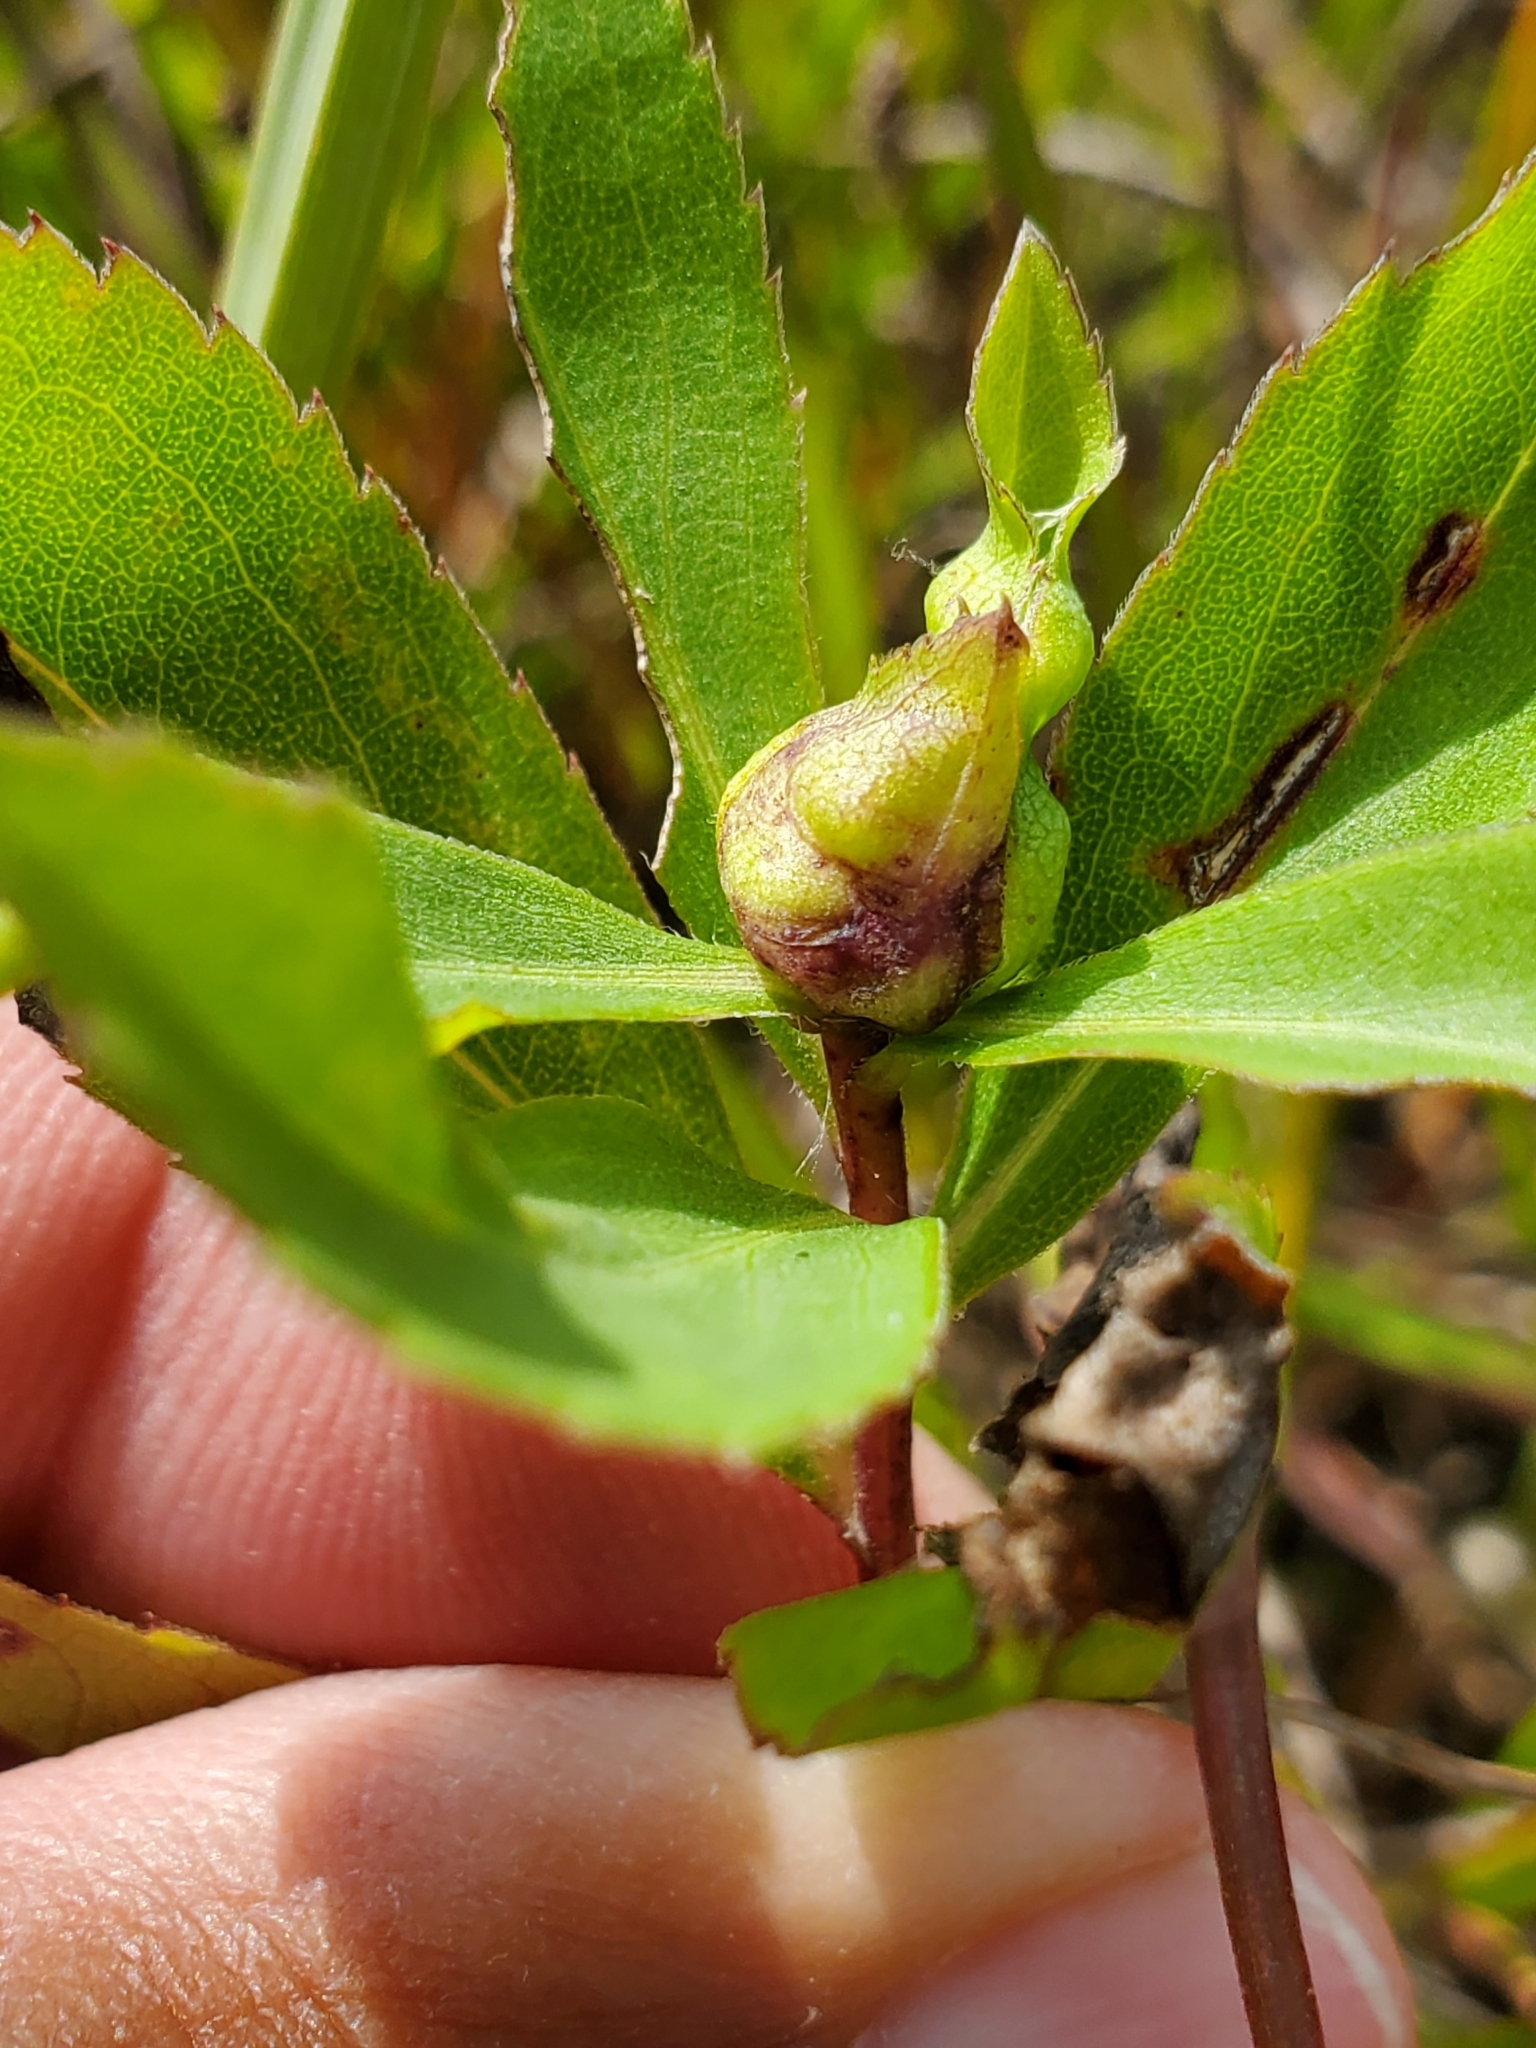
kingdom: Animalia
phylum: Arthropoda
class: Insecta
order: Diptera
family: Cecidomyiidae
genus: Dasineura
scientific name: Dasineura folliculi
